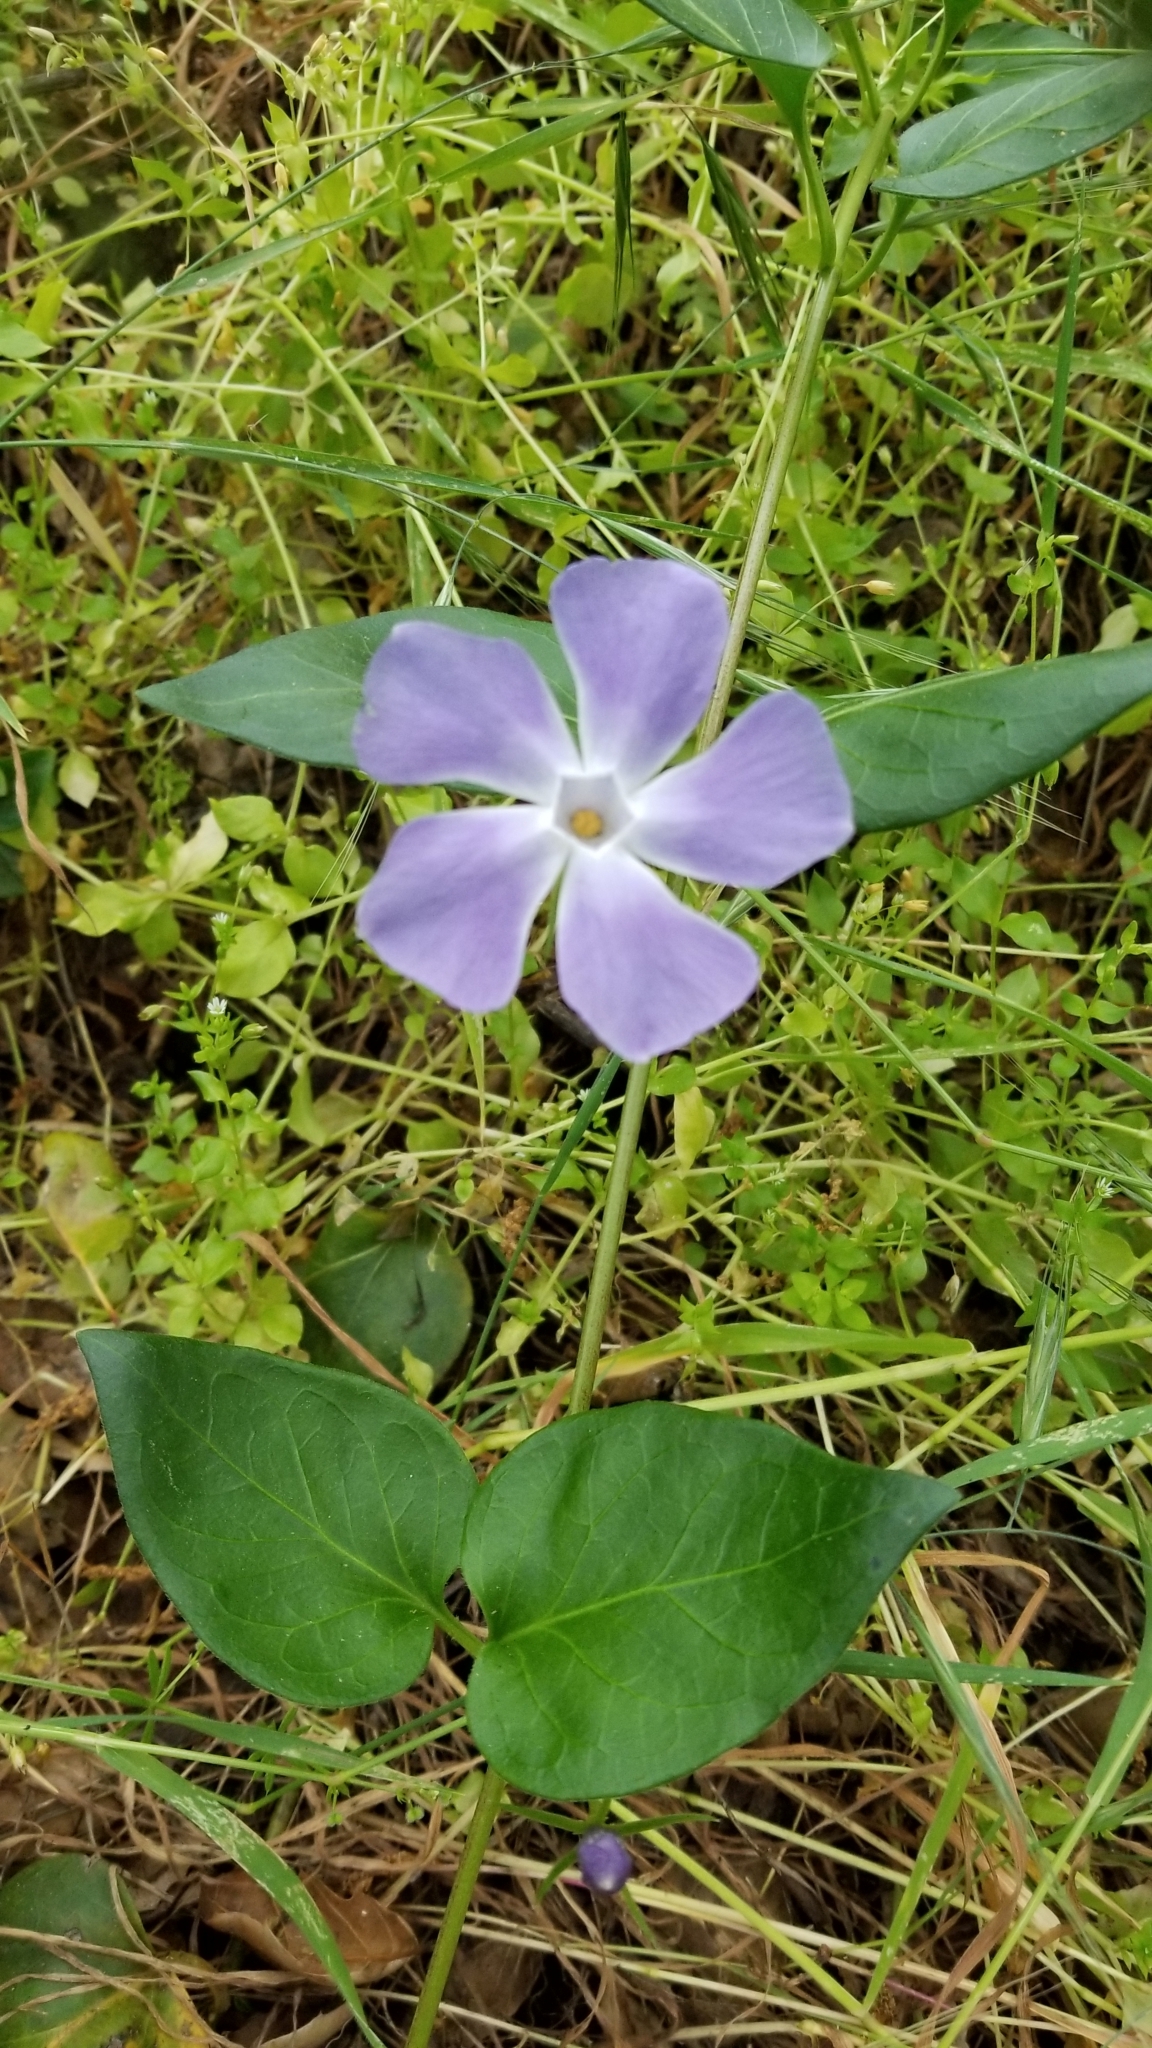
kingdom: Plantae
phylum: Tracheophyta
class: Magnoliopsida
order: Gentianales
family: Apocynaceae
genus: Vinca
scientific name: Vinca major
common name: Greater periwinkle
